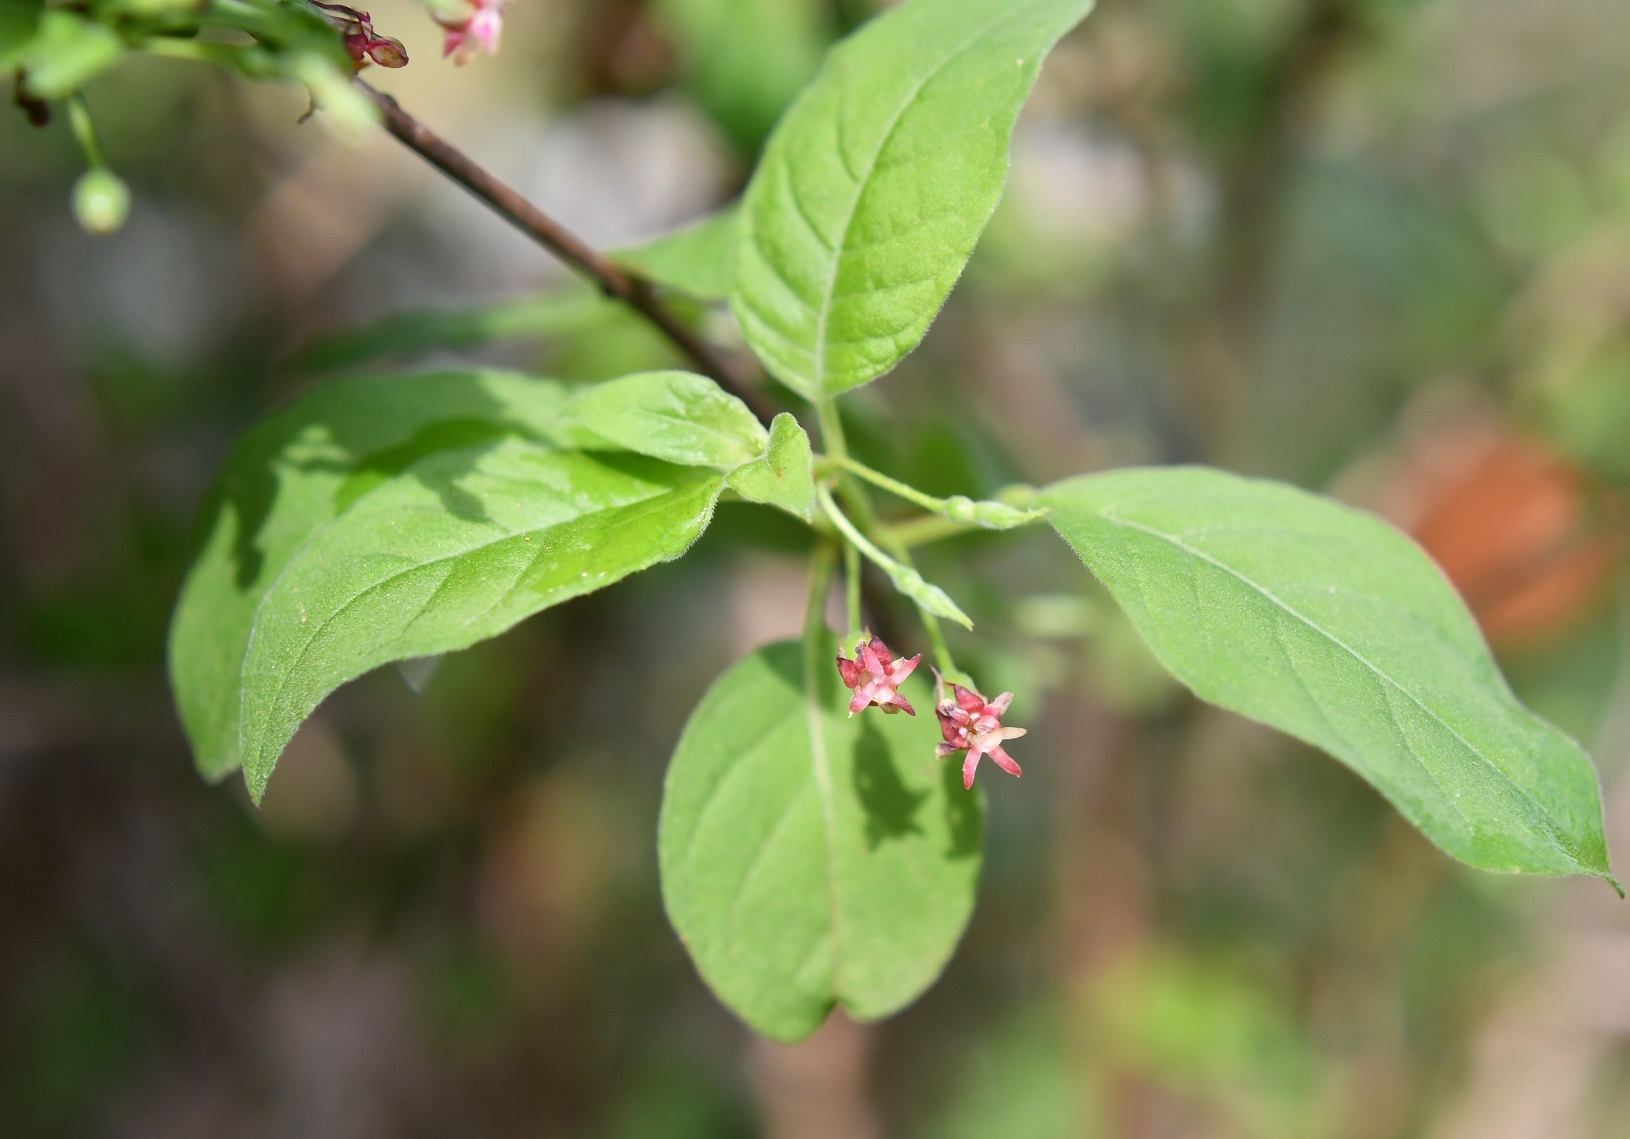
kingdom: Plantae
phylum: Tracheophyta
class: Magnoliopsida
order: Myrtales
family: Onagraceae
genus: Fuchsia
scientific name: Fuchsia encliandra
